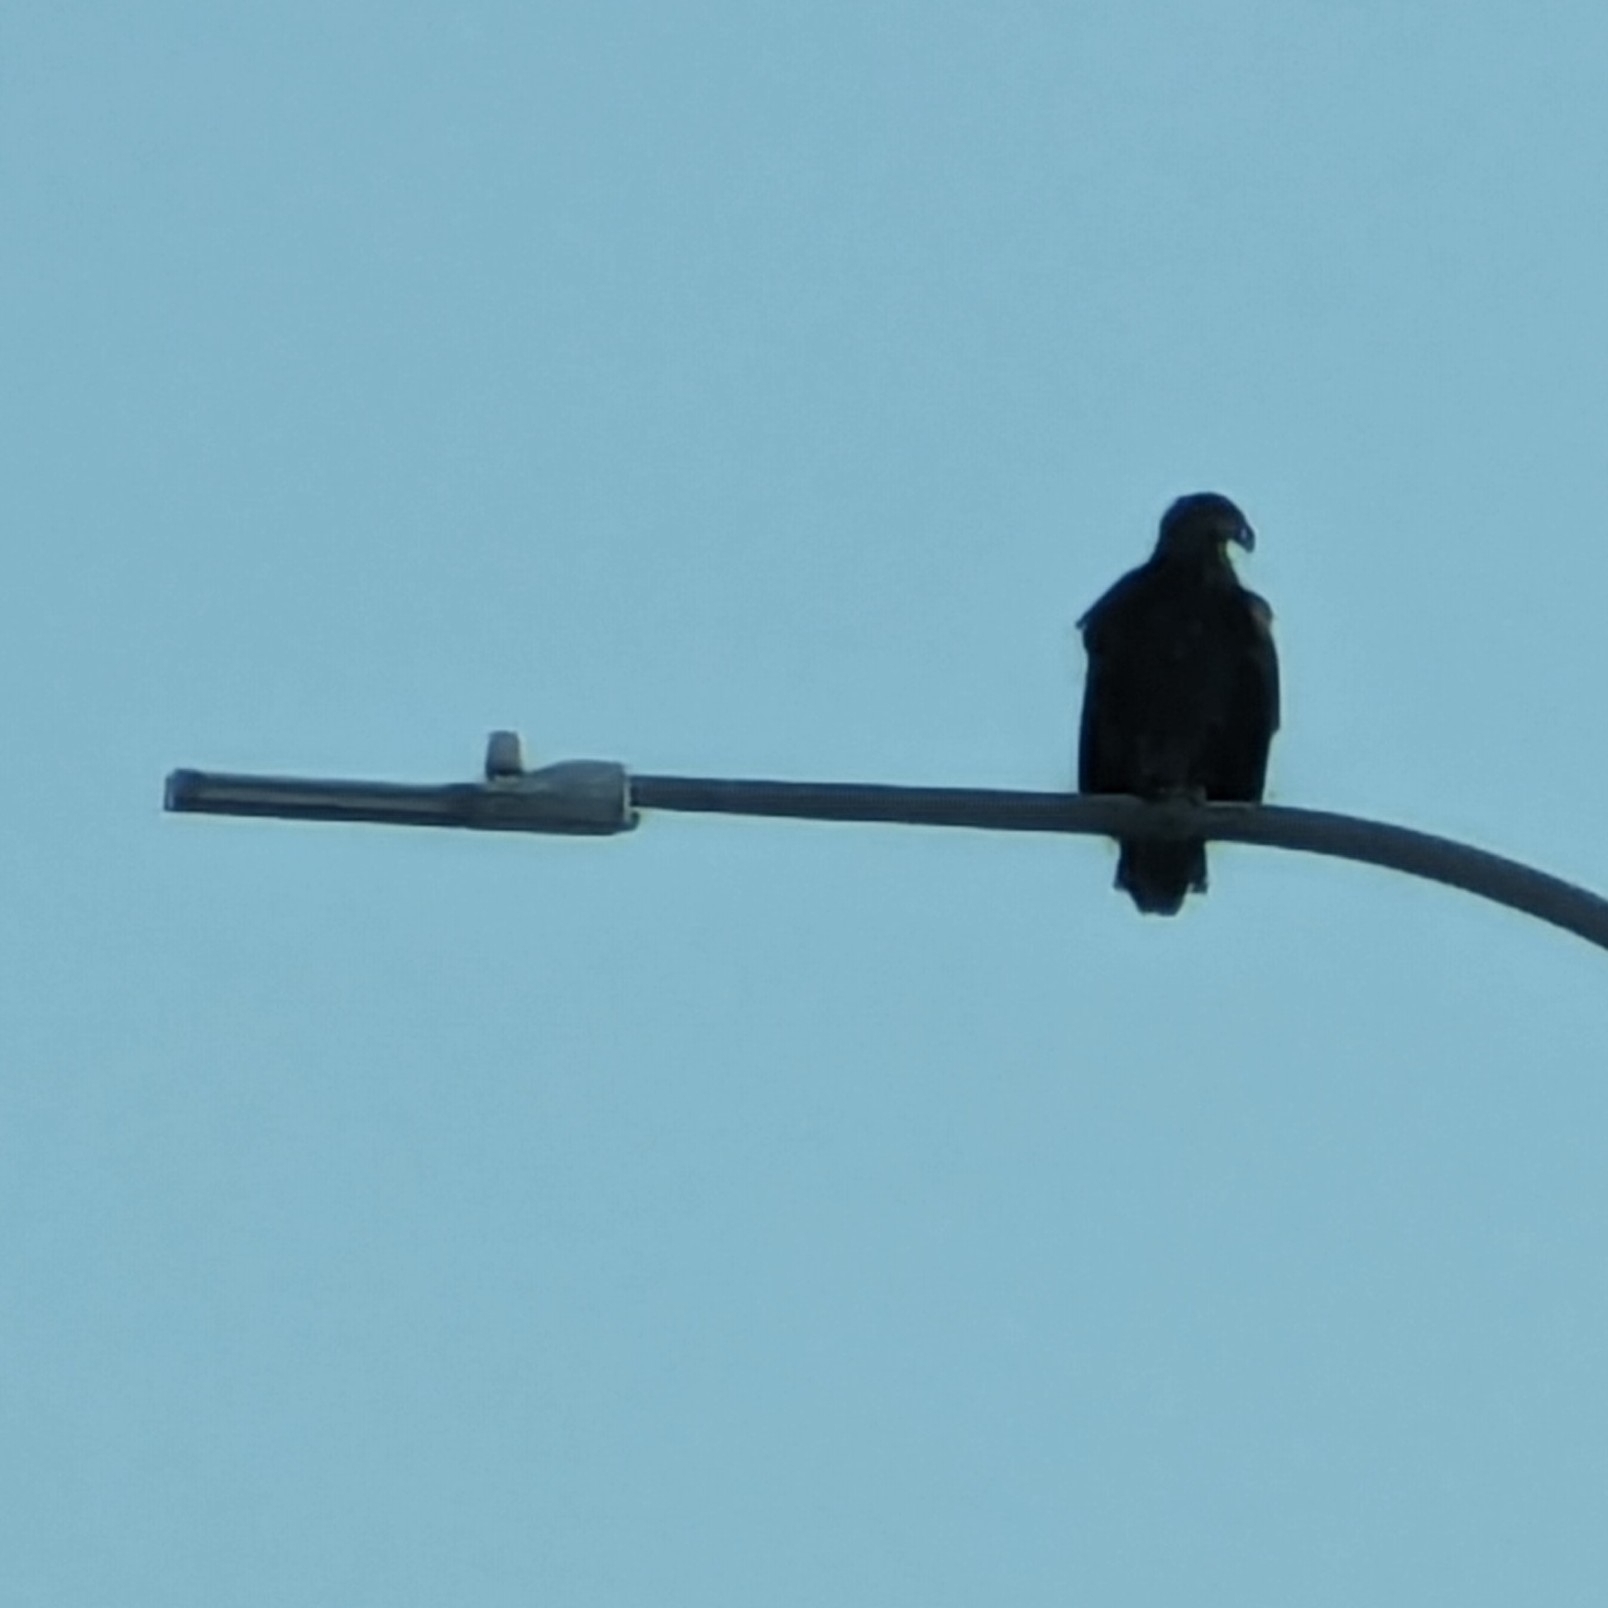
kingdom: Animalia
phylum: Chordata
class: Aves
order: Accipitriformes
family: Accipitridae
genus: Haliaeetus
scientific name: Haliaeetus leucocephalus
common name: Bald eagle
